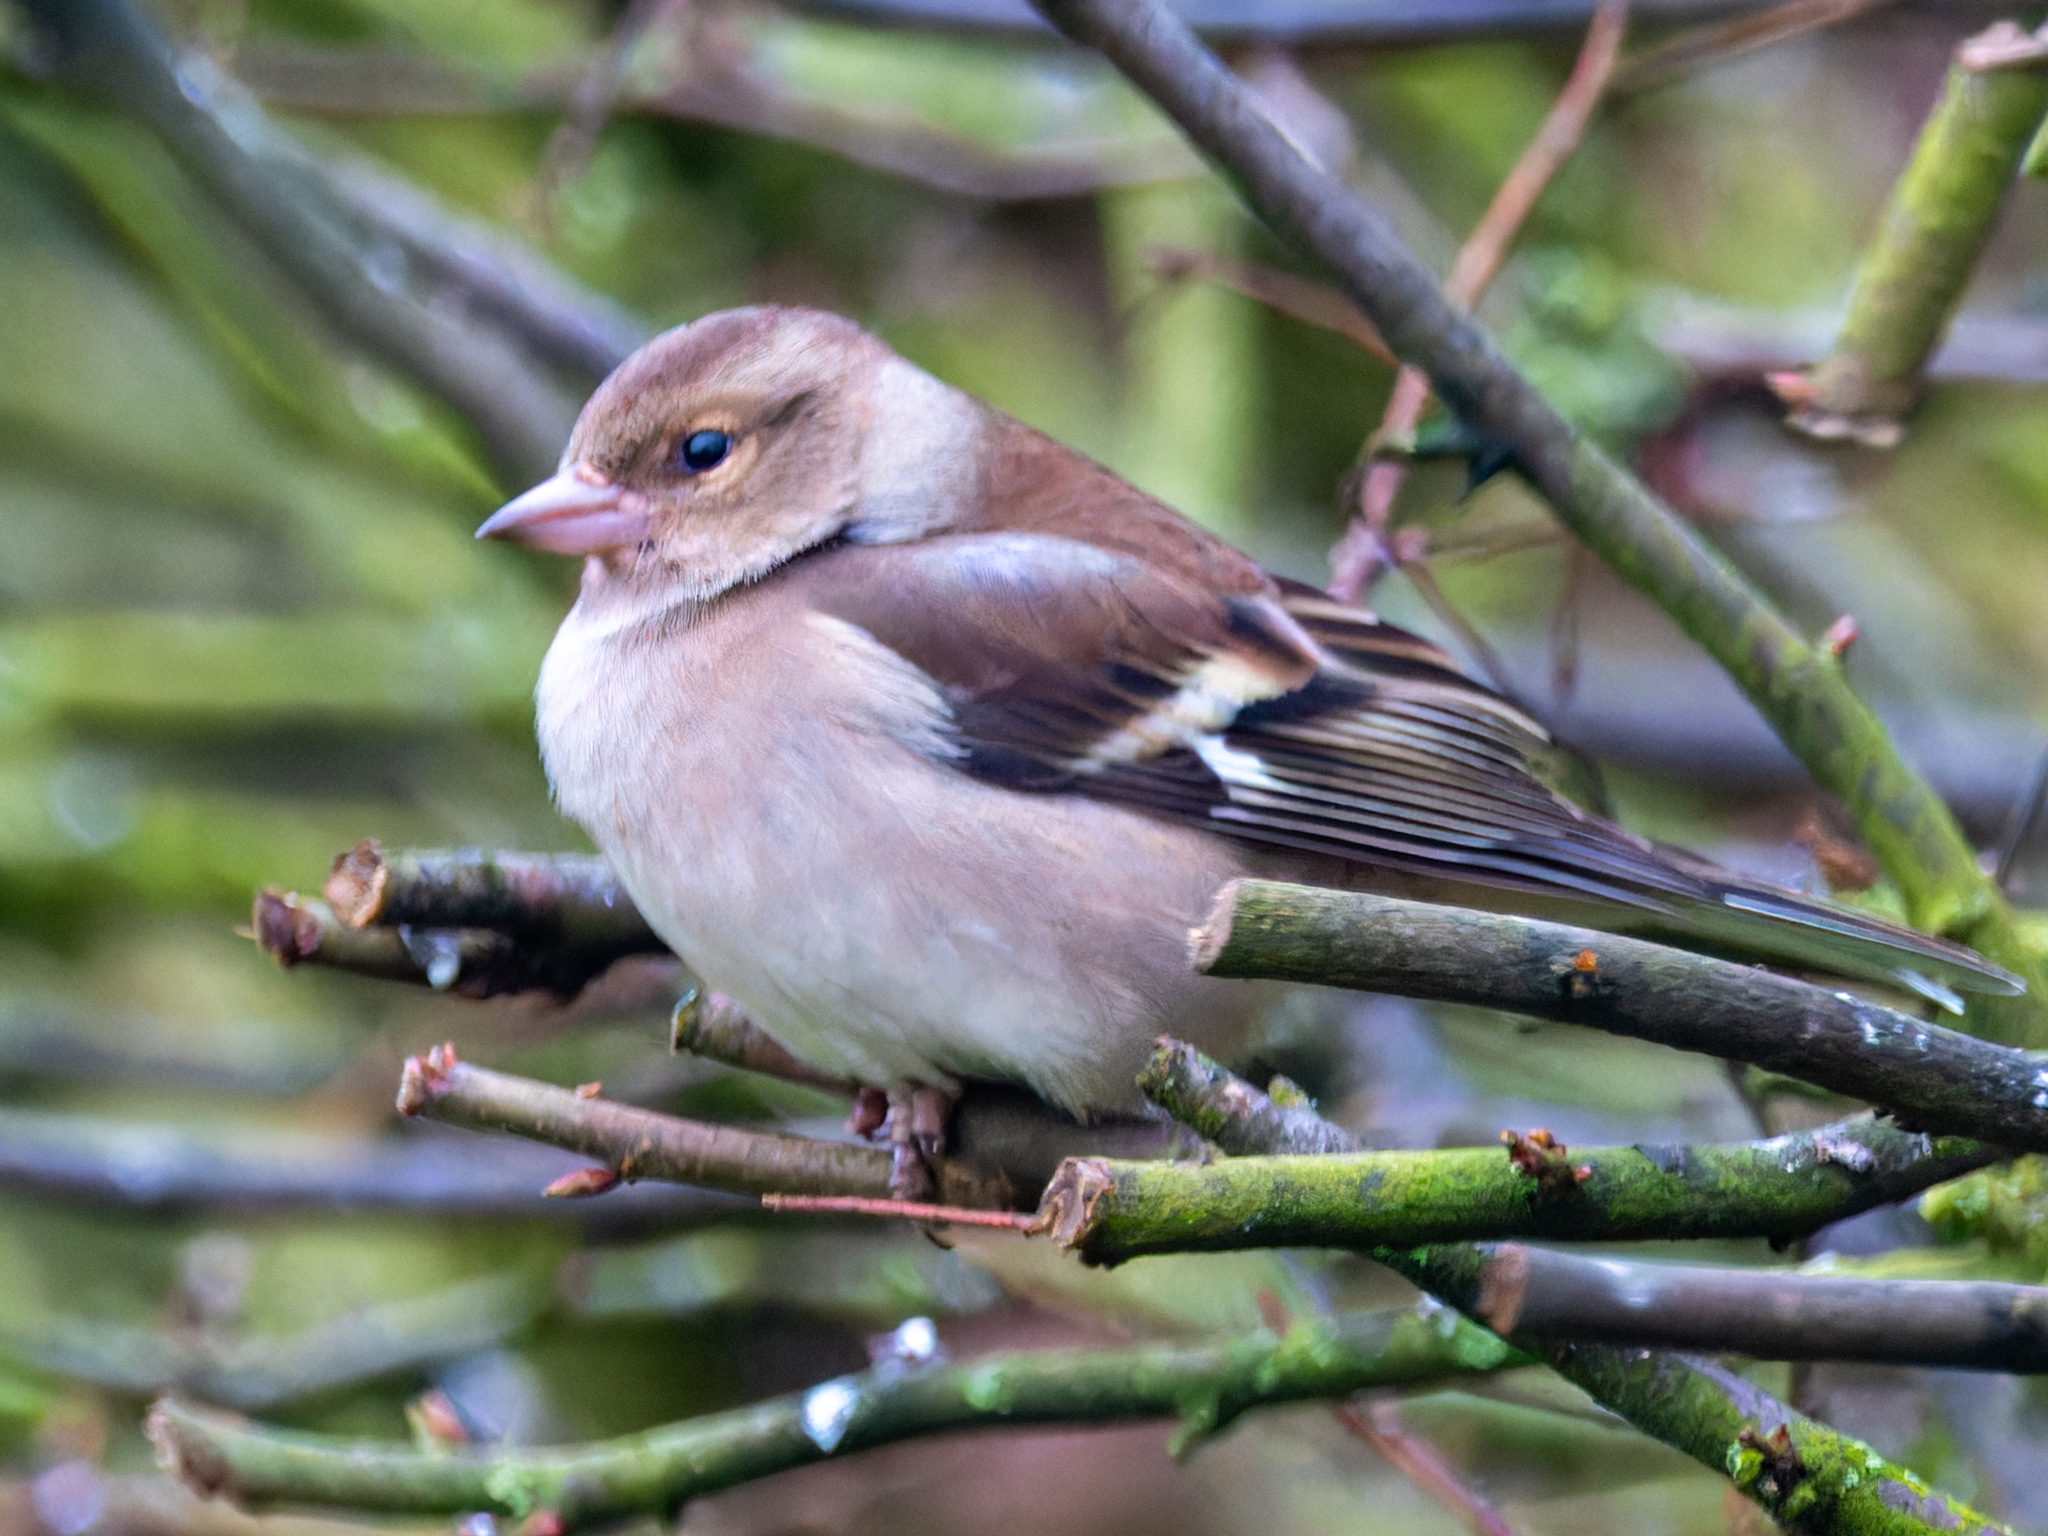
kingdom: Animalia
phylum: Chordata
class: Aves
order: Passeriformes
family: Fringillidae
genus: Fringilla
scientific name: Fringilla coelebs
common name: Common chaffinch
